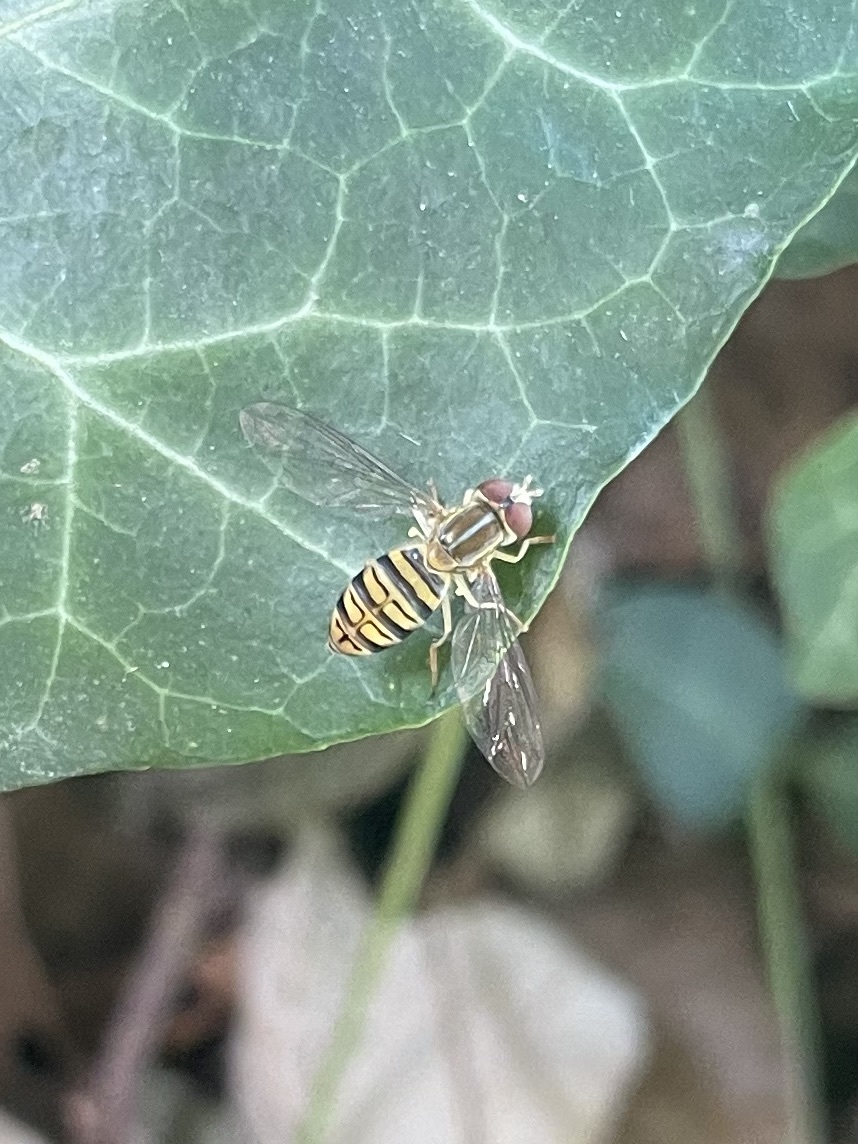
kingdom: Animalia
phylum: Arthropoda
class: Insecta
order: Diptera
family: Syrphidae
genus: Toxomerus
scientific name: Toxomerus politus
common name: Maize calligrapher
